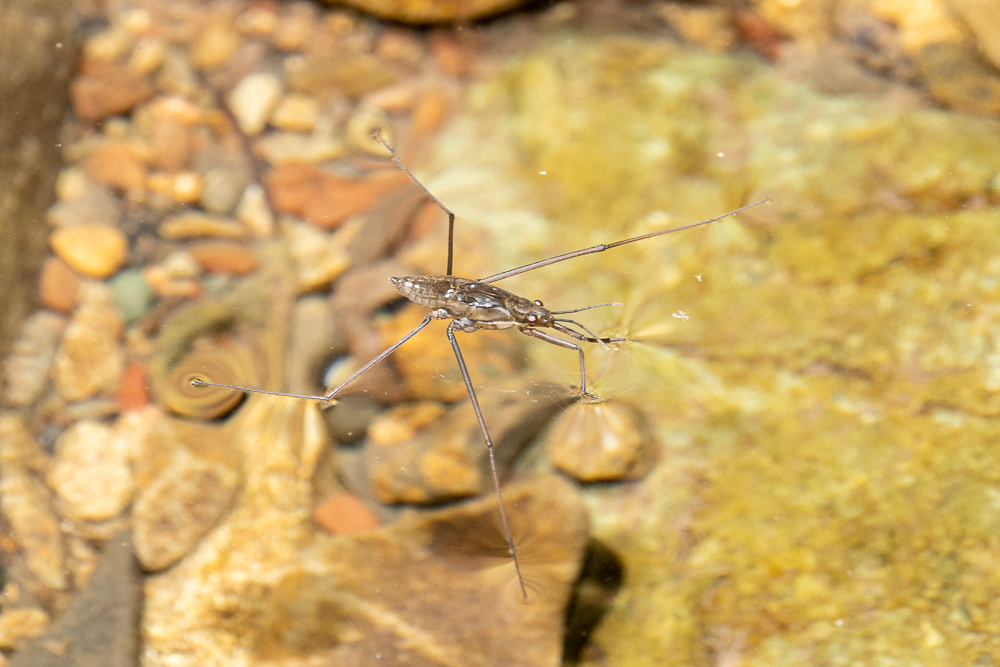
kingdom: Animalia
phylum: Arthropoda
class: Insecta
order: Hemiptera
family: Gerridae
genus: Aquarius
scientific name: Aquarius remigis
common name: Common water strider
